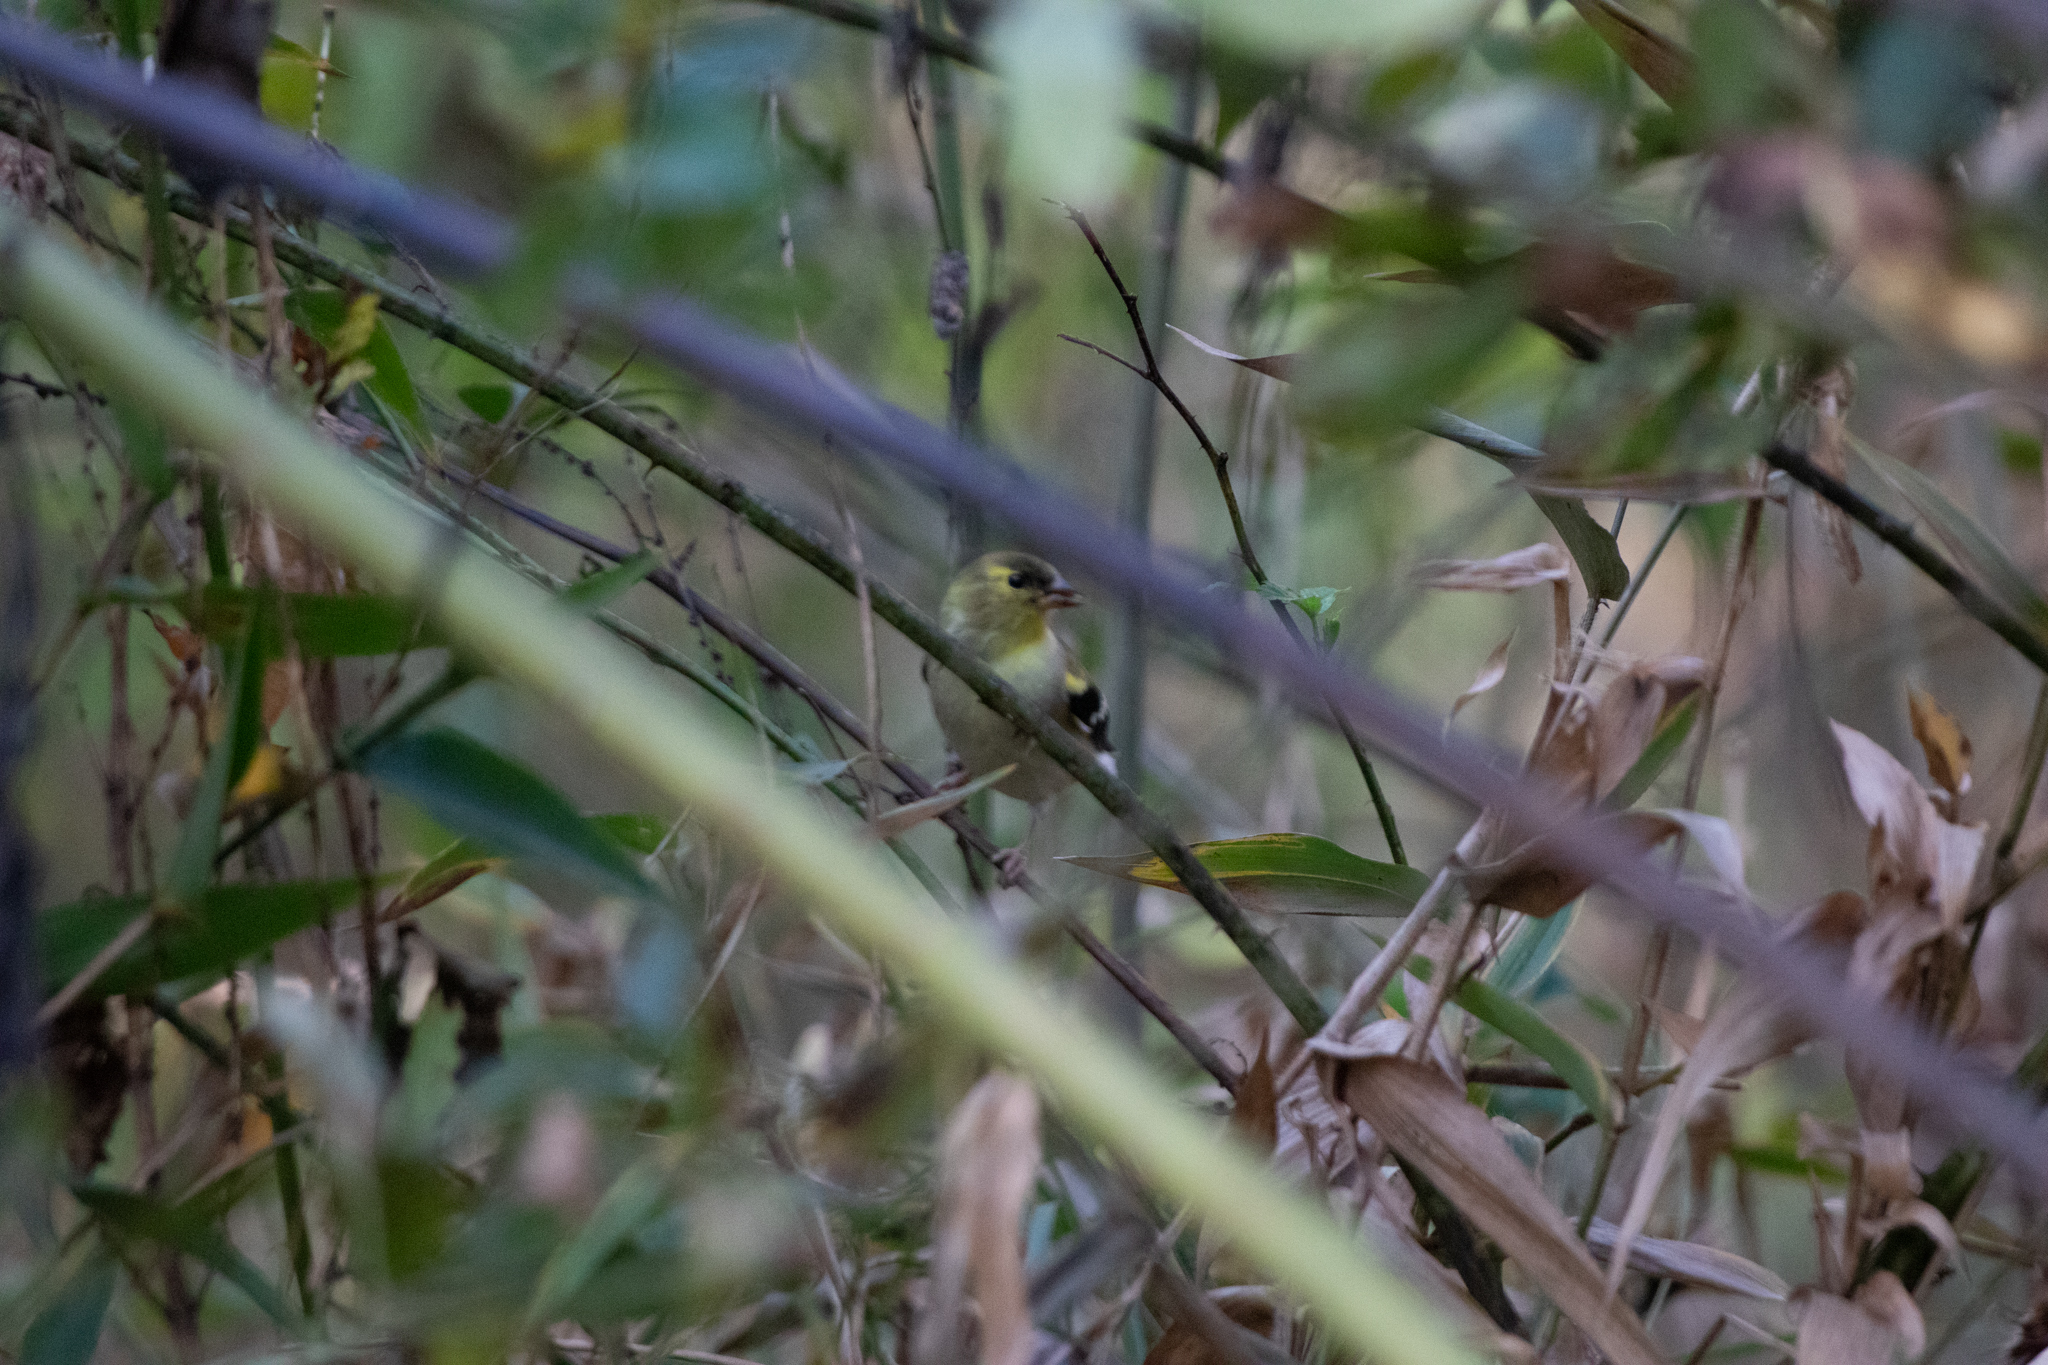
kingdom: Animalia
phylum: Chordata
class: Aves
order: Passeriformes
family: Fringillidae
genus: Spinus
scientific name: Spinus tristis
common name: American goldfinch
